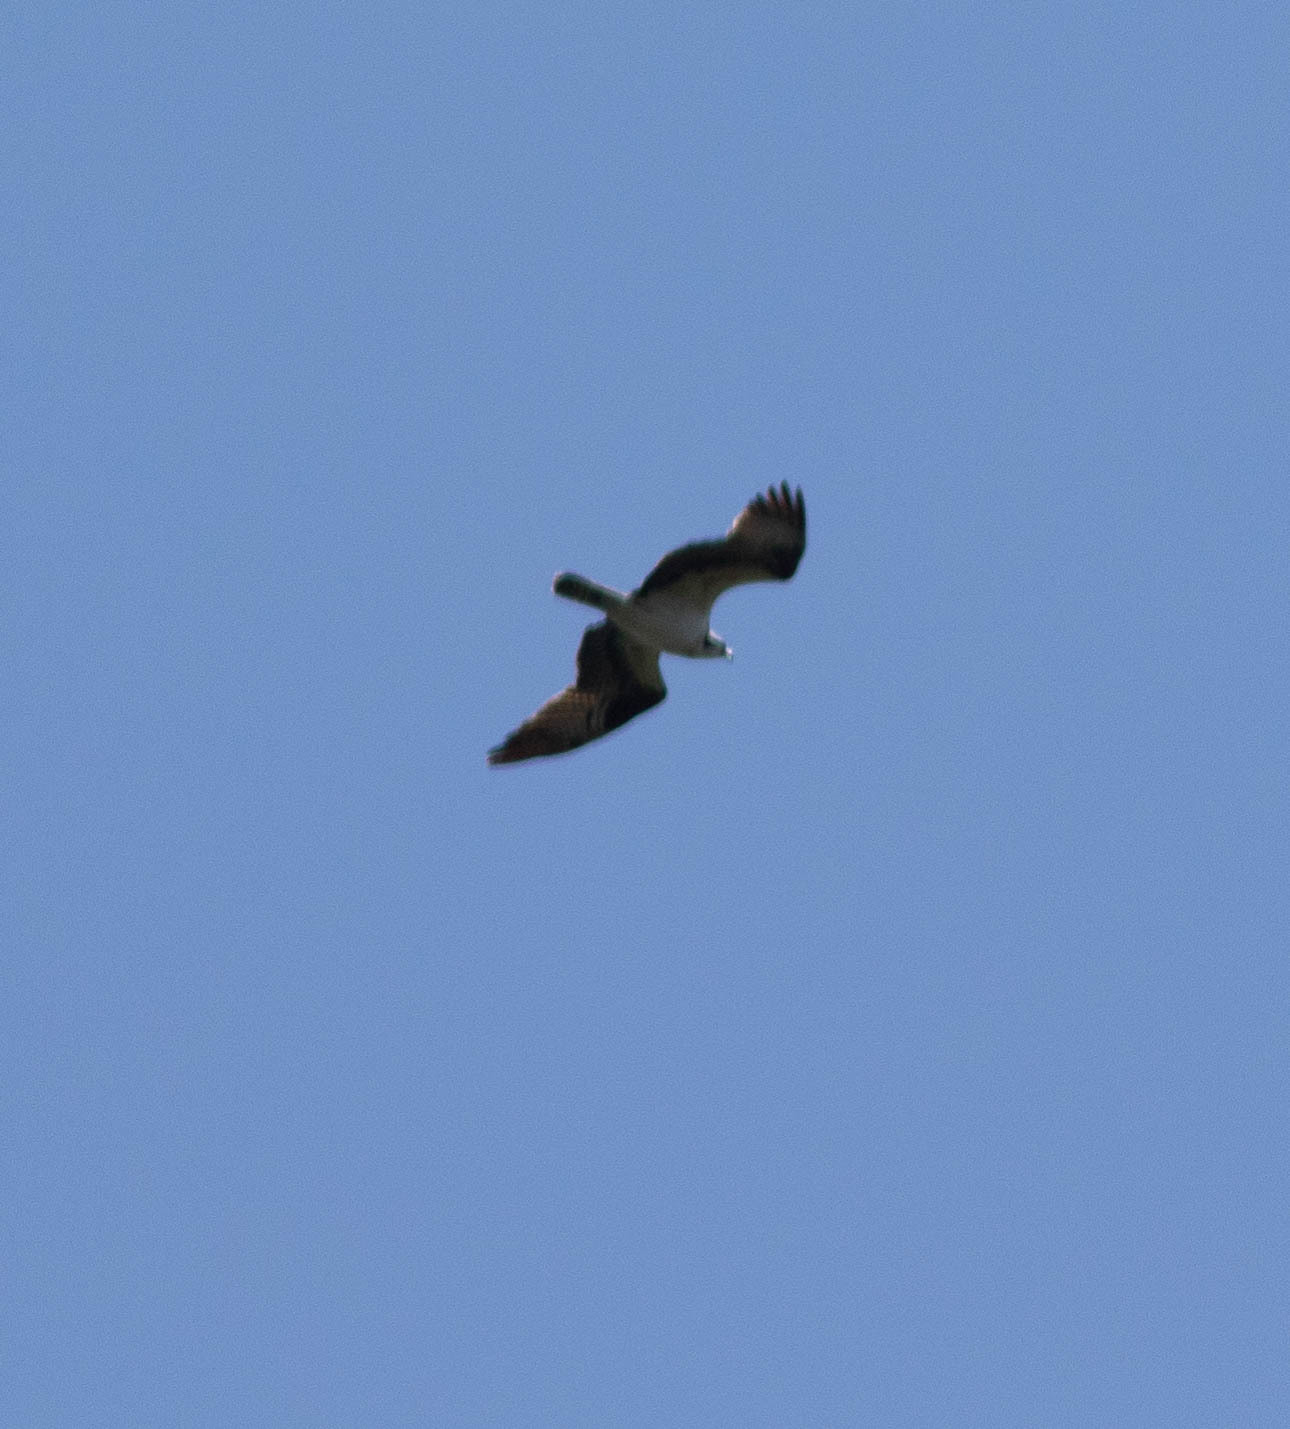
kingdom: Animalia
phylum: Chordata
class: Aves
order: Accipitriformes
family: Pandionidae
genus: Pandion
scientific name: Pandion haliaetus
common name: Osprey
